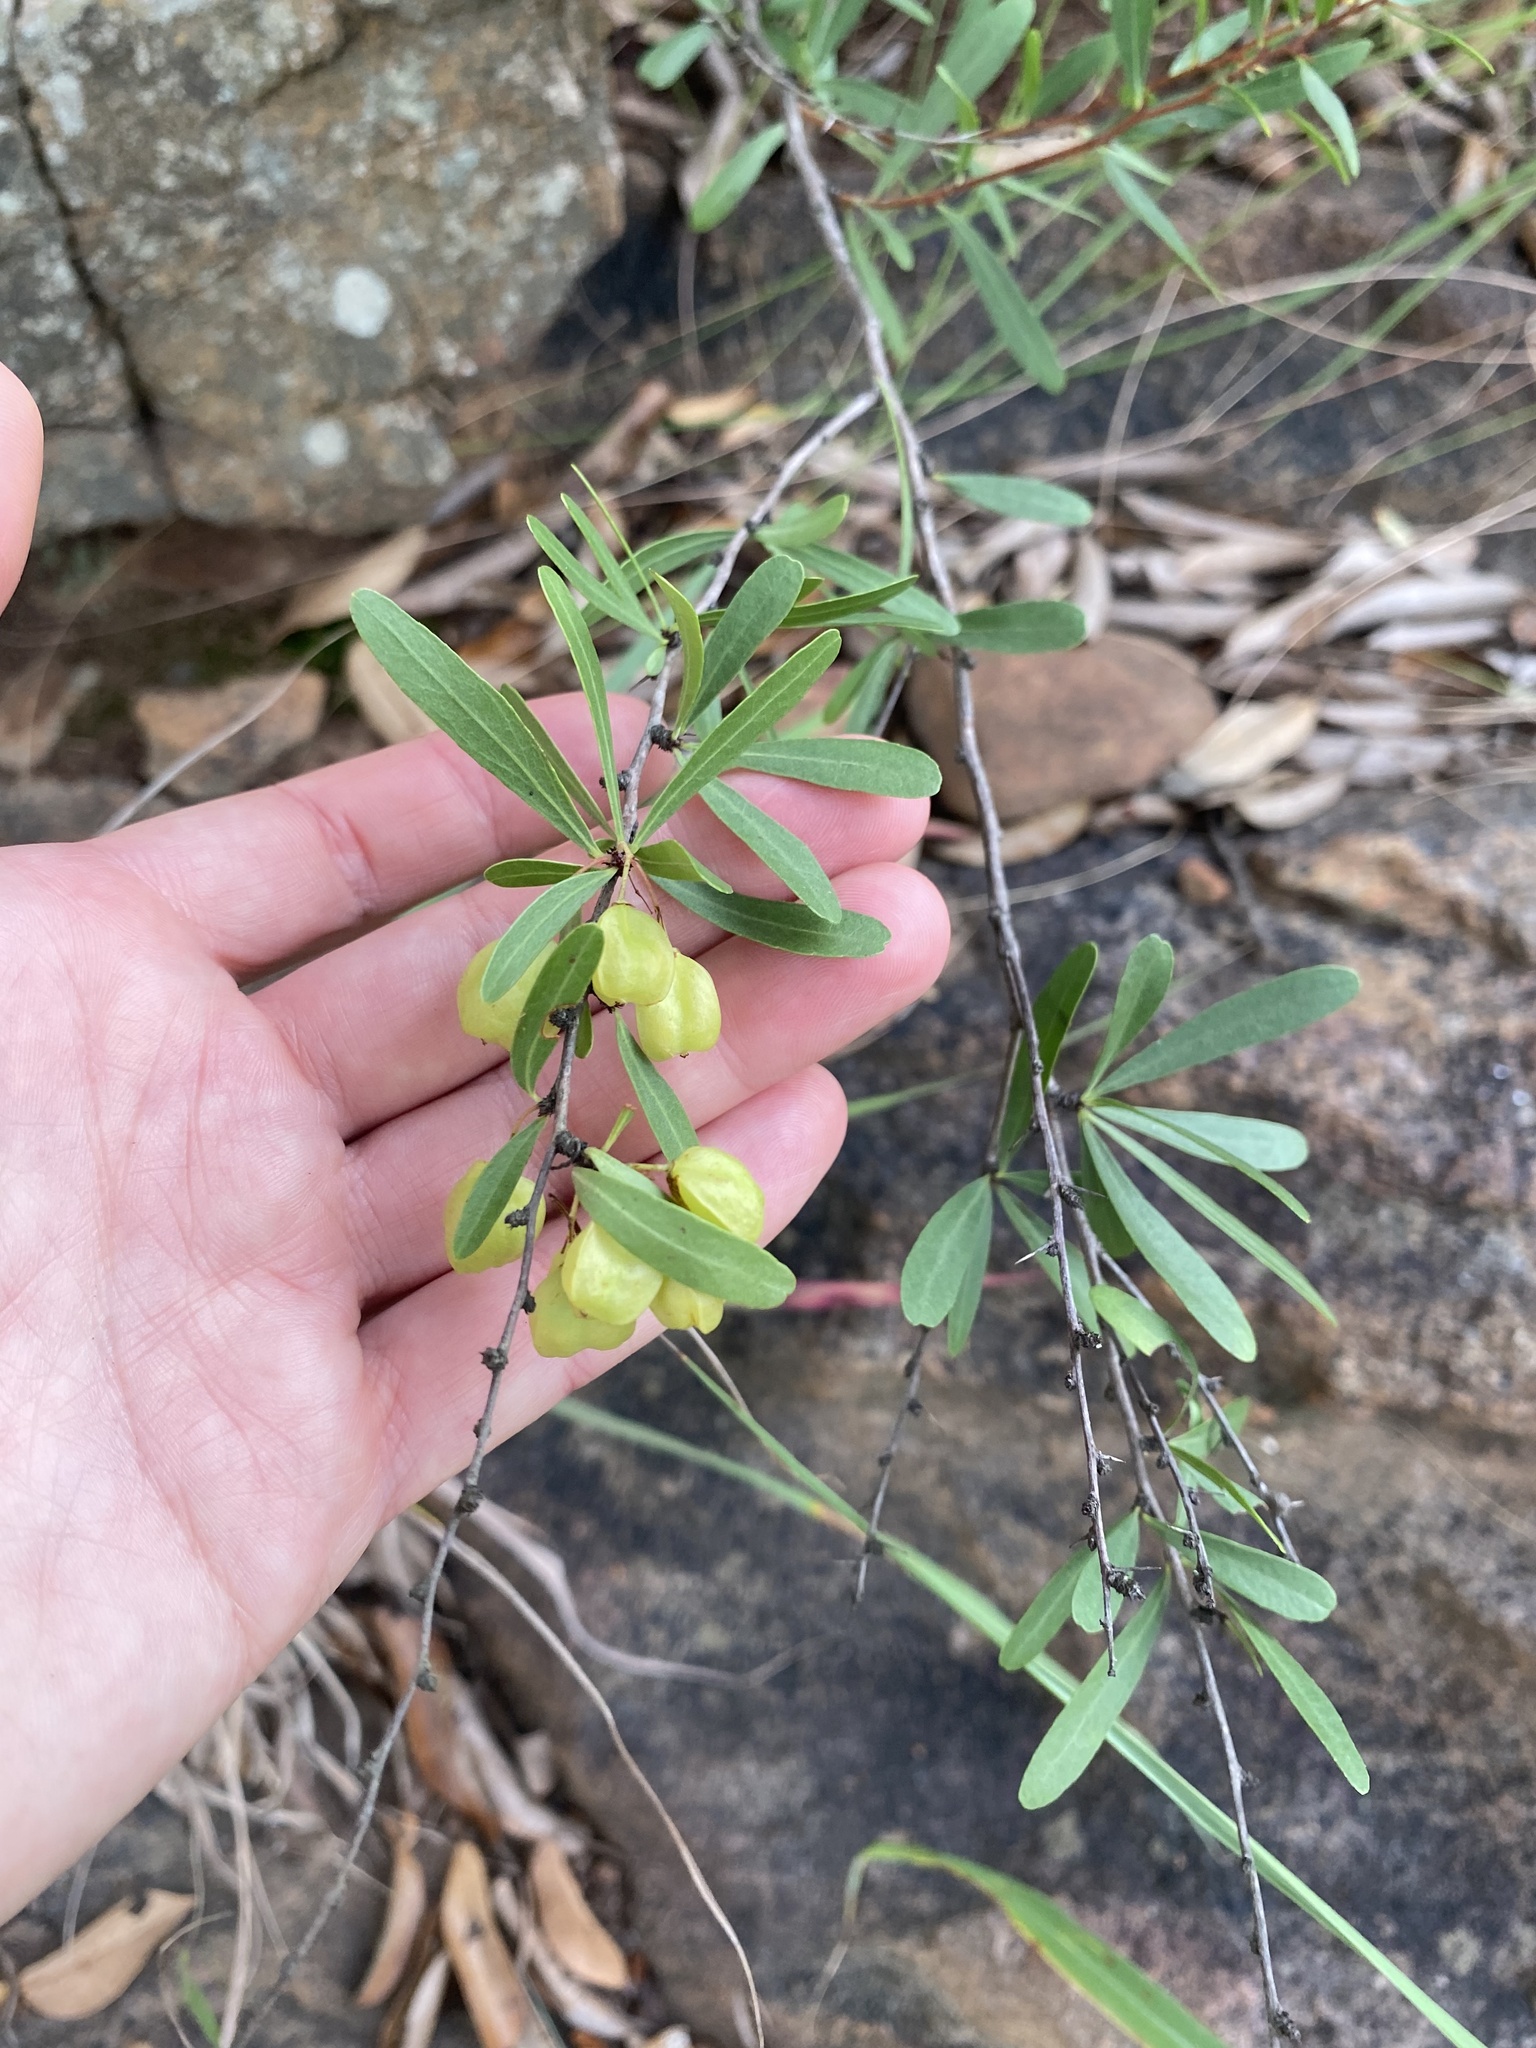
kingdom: Plantae
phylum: Tracheophyta
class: Magnoliopsida
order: Celastrales
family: Celastraceae
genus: Gymnosporia
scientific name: Gymnosporia tenuispina
